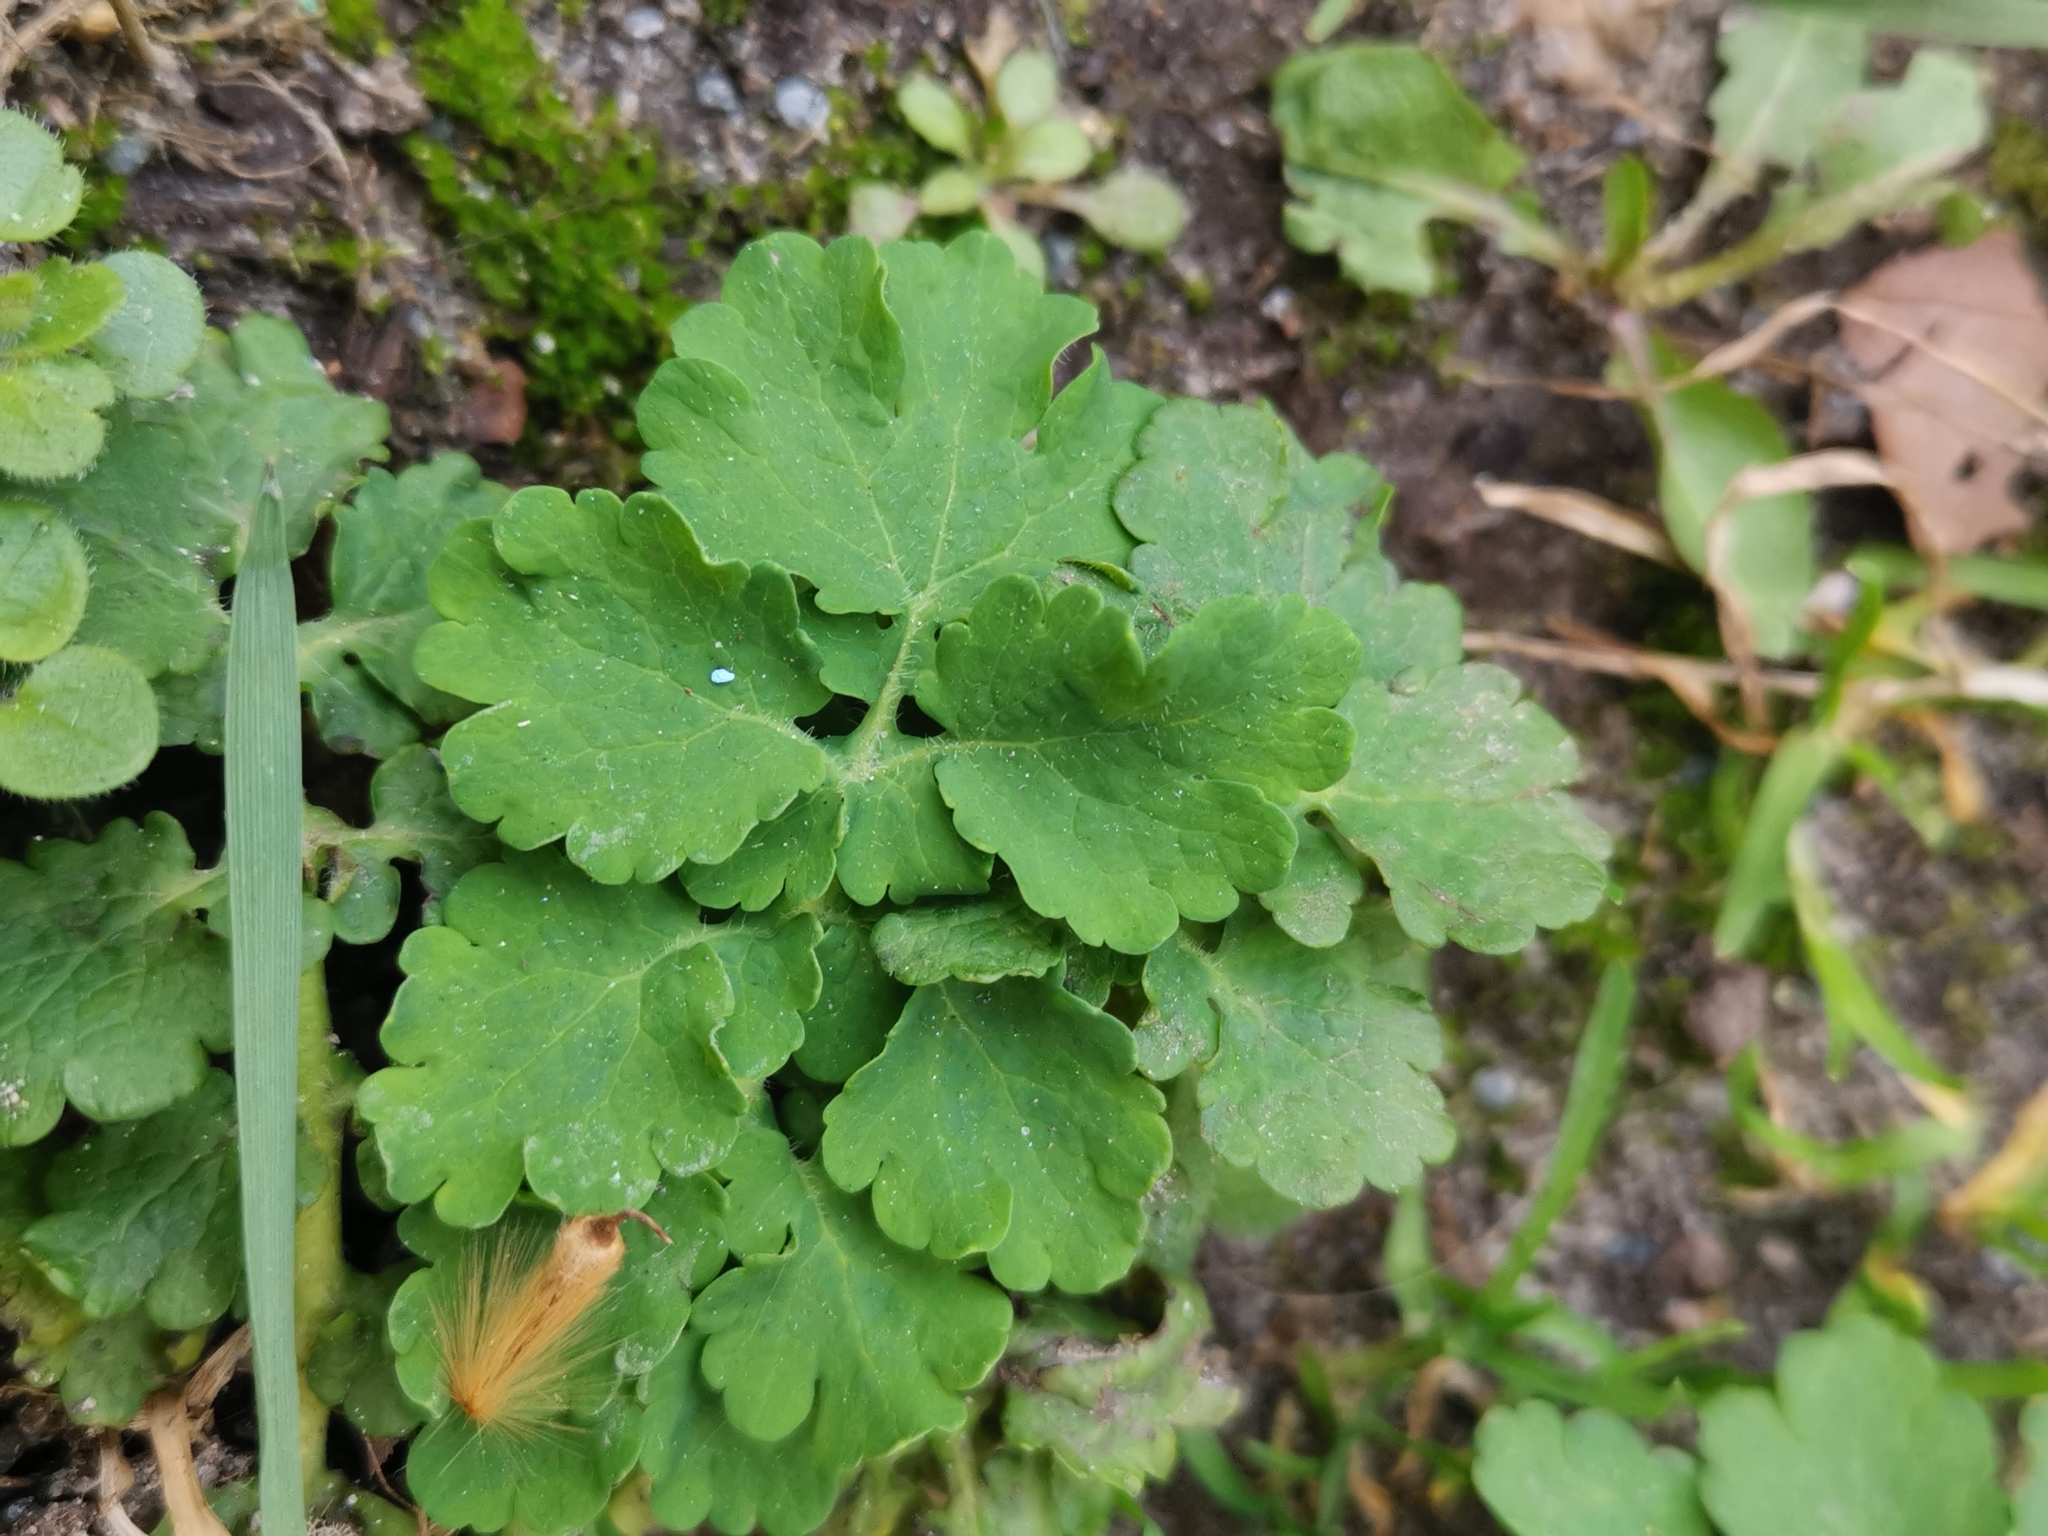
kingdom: Plantae
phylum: Tracheophyta
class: Magnoliopsida
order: Ranunculales
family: Papaveraceae
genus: Chelidonium
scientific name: Chelidonium majus
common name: Greater celandine
